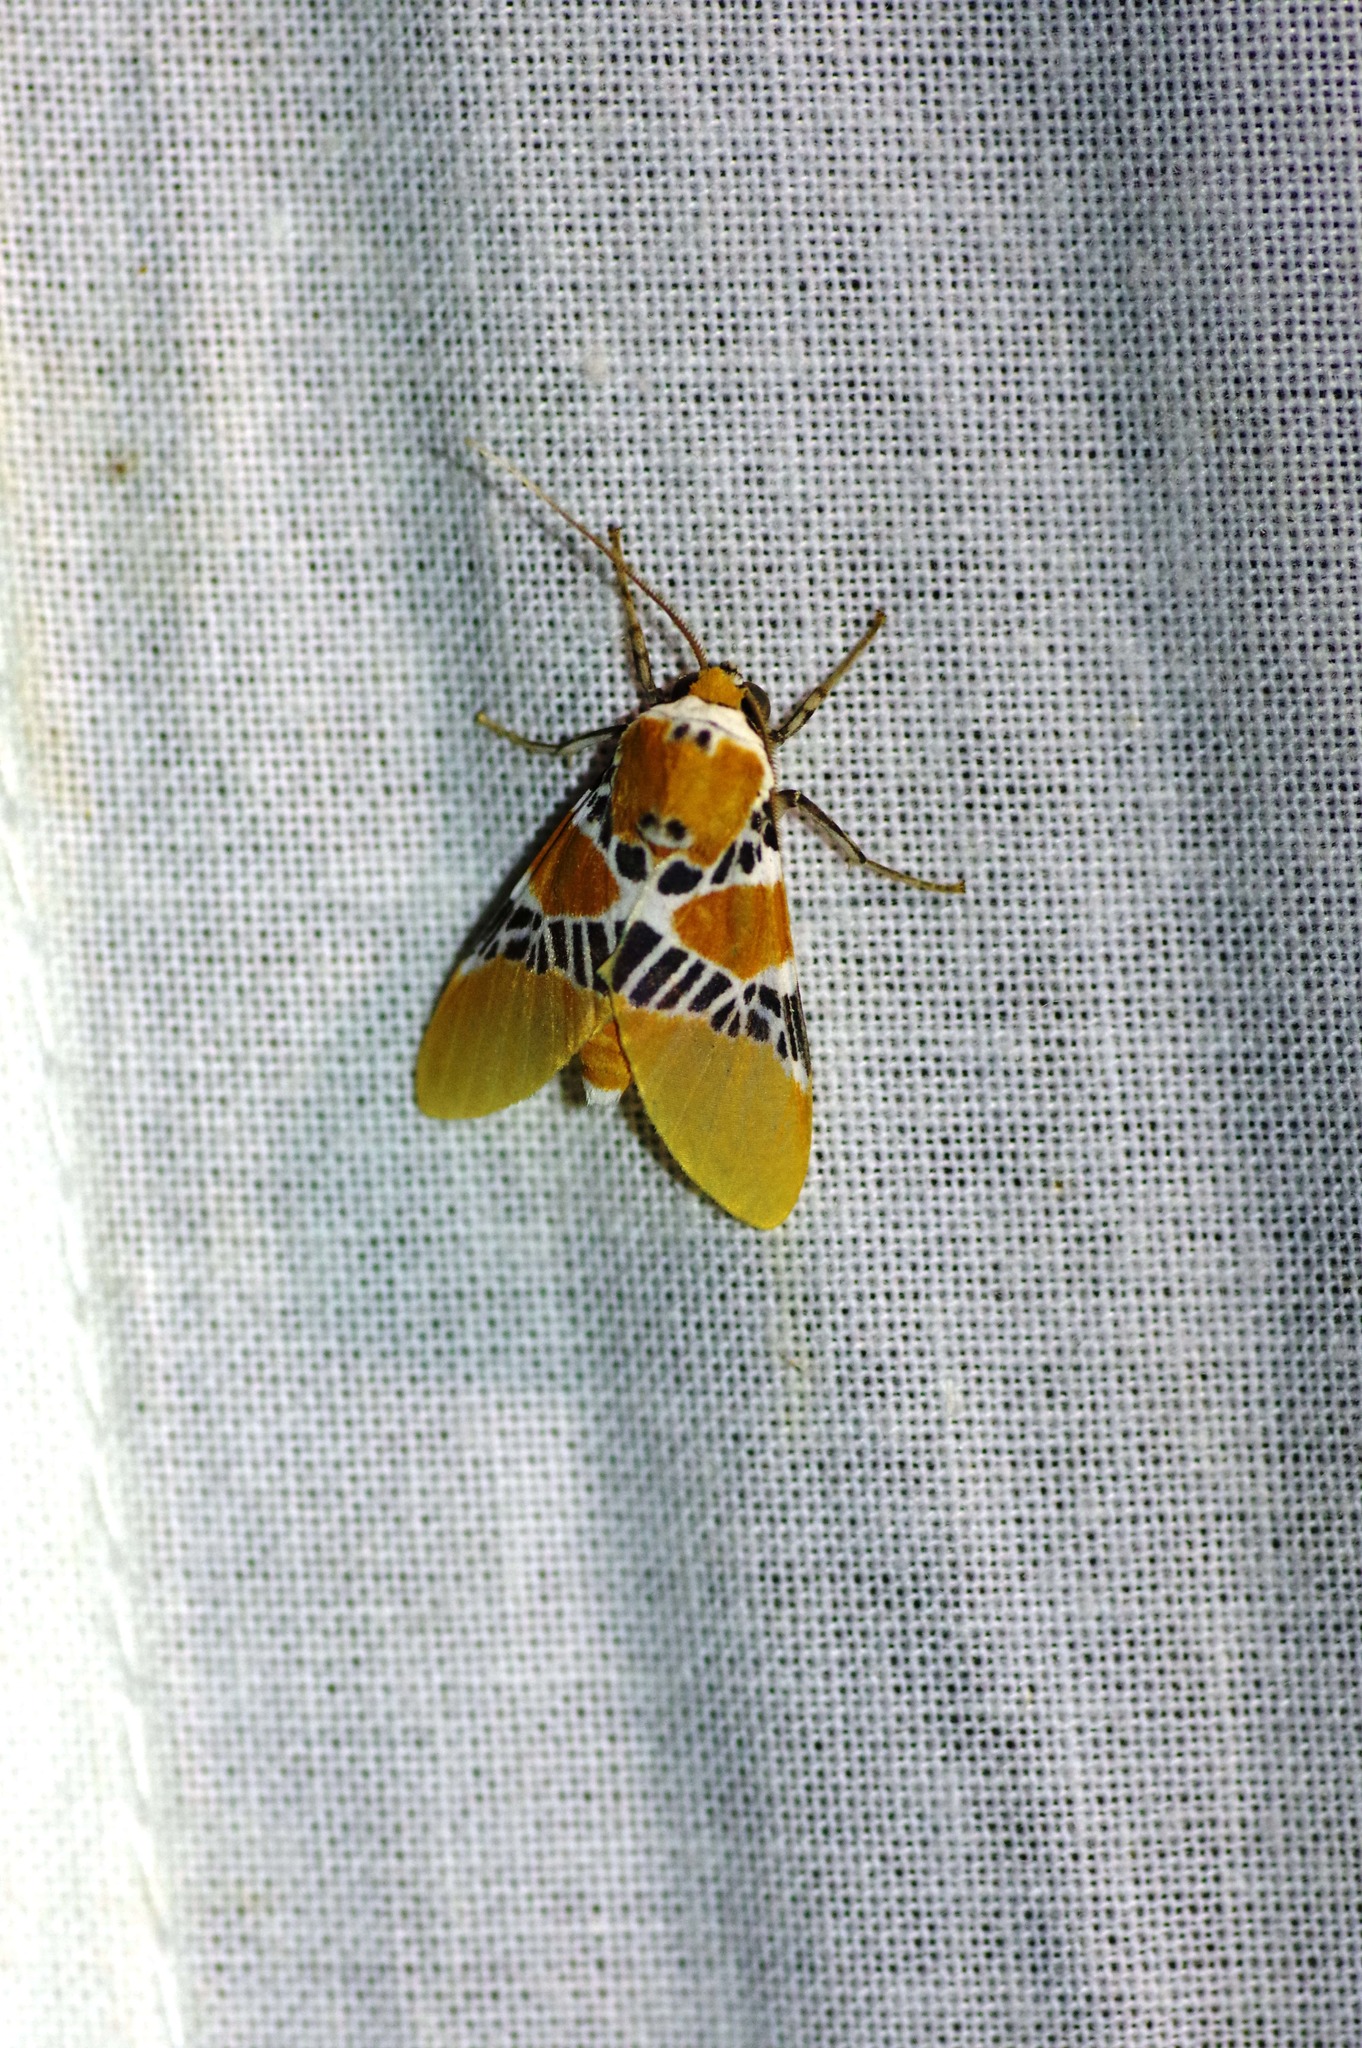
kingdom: Animalia
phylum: Arthropoda
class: Insecta
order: Lepidoptera
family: Erebidae
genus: Idalus
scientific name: Idalus ochreata
